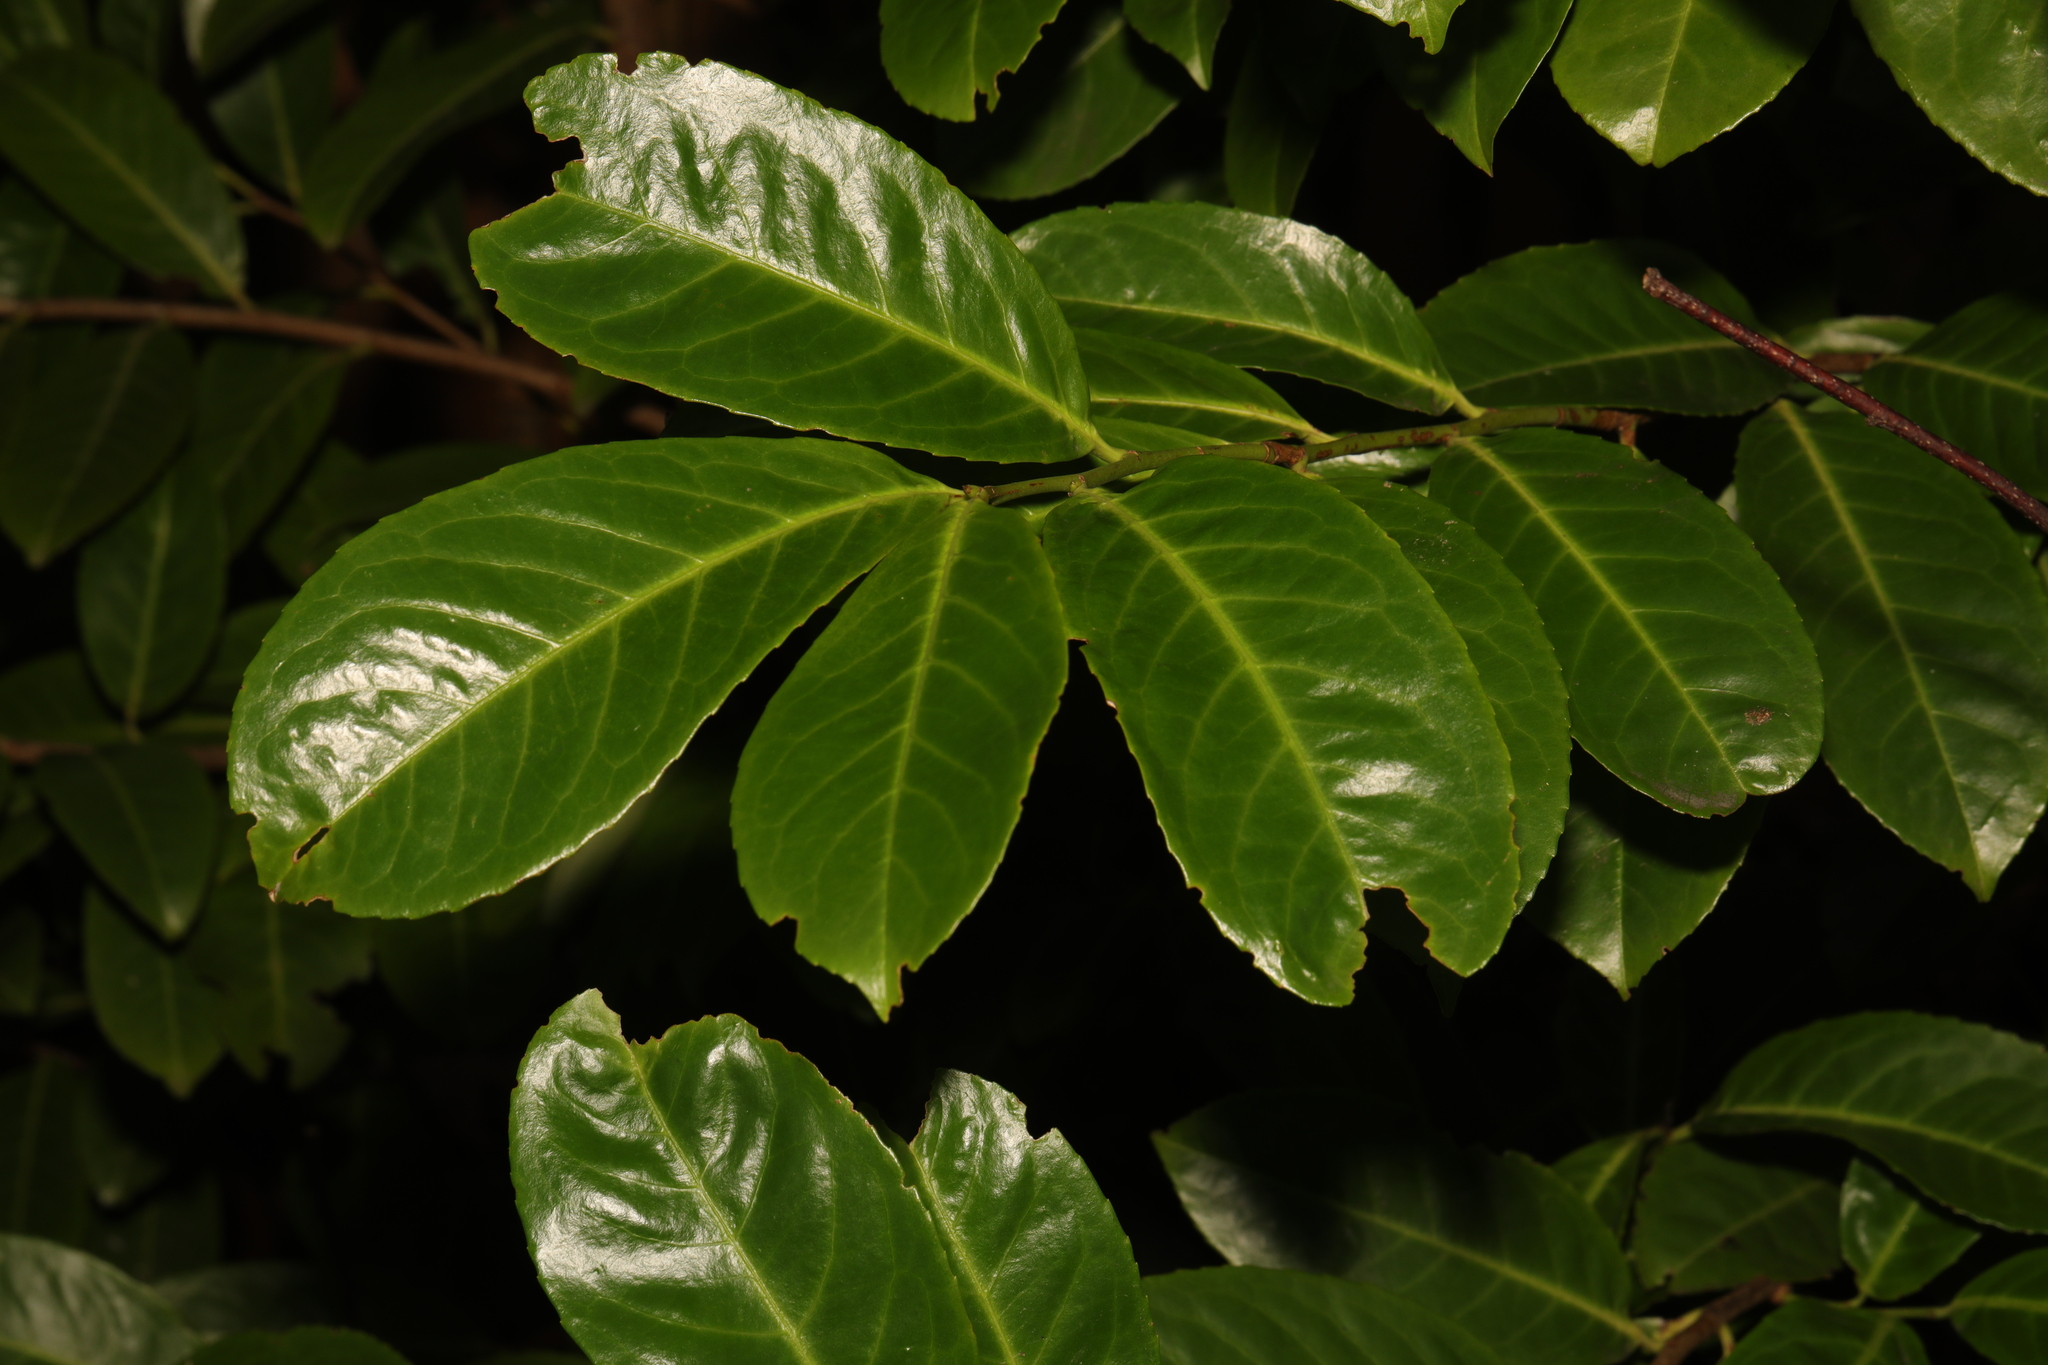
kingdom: Plantae
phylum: Tracheophyta
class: Magnoliopsida
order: Rosales
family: Rosaceae
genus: Prunus
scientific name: Prunus laurocerasus
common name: Cherry laurel
